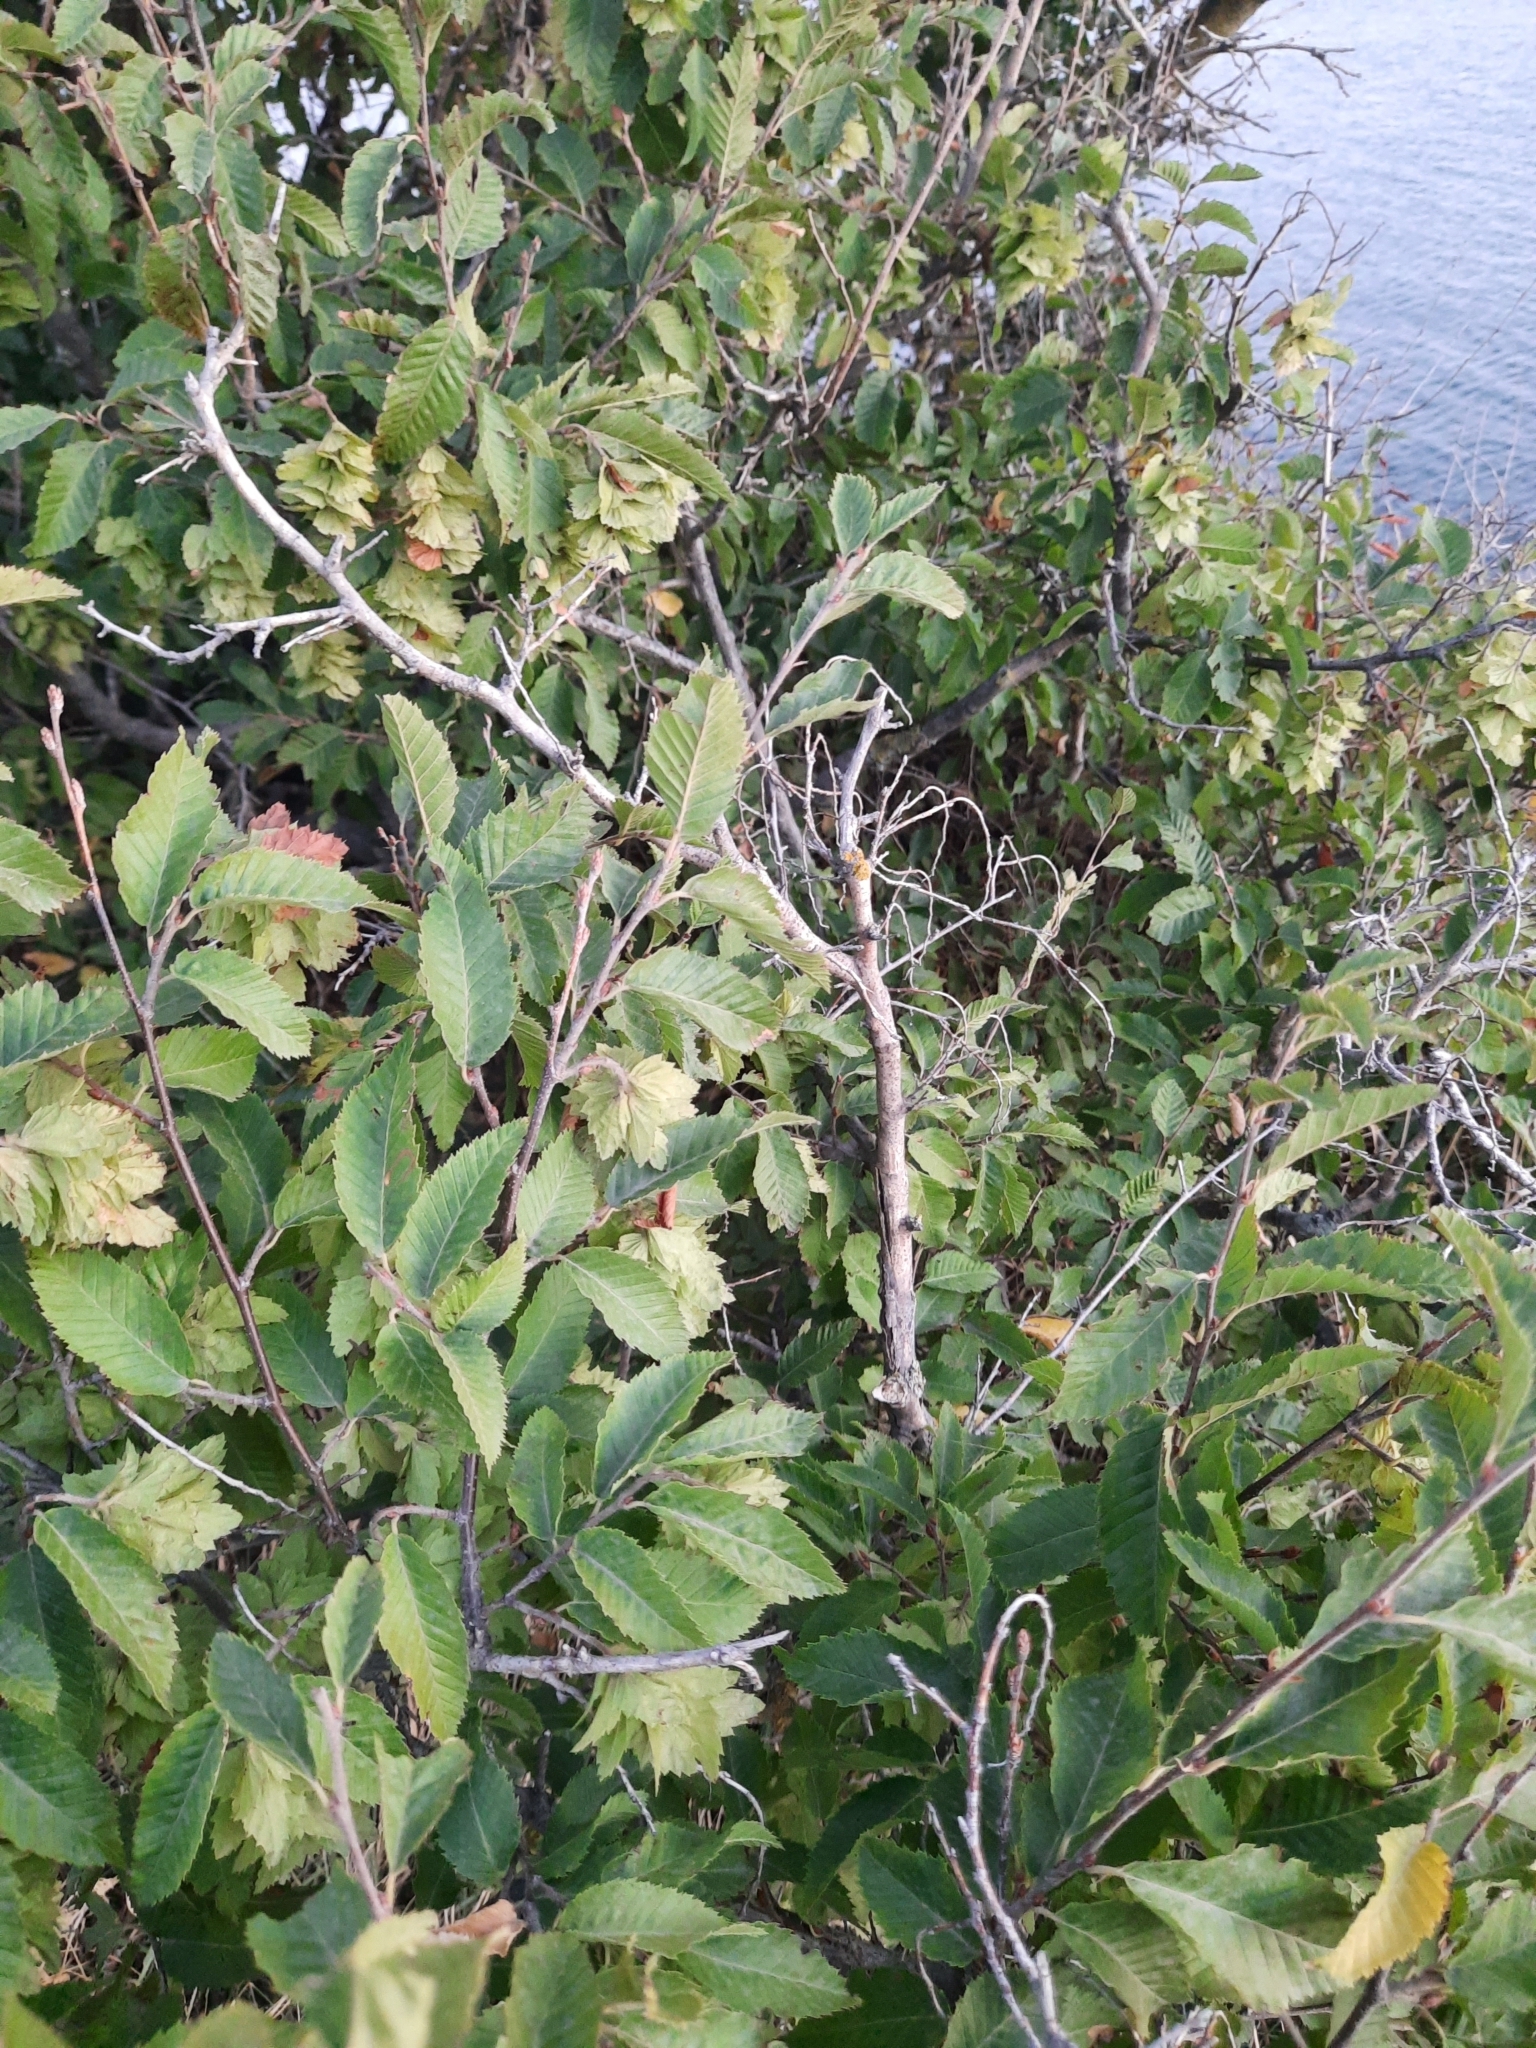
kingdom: Plantae
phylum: Tracheophyta
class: Magnoliopsida
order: Fagales
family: Betulaceae
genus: Carpinus
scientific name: Carpinus orientalis
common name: Eastern hornbeam
